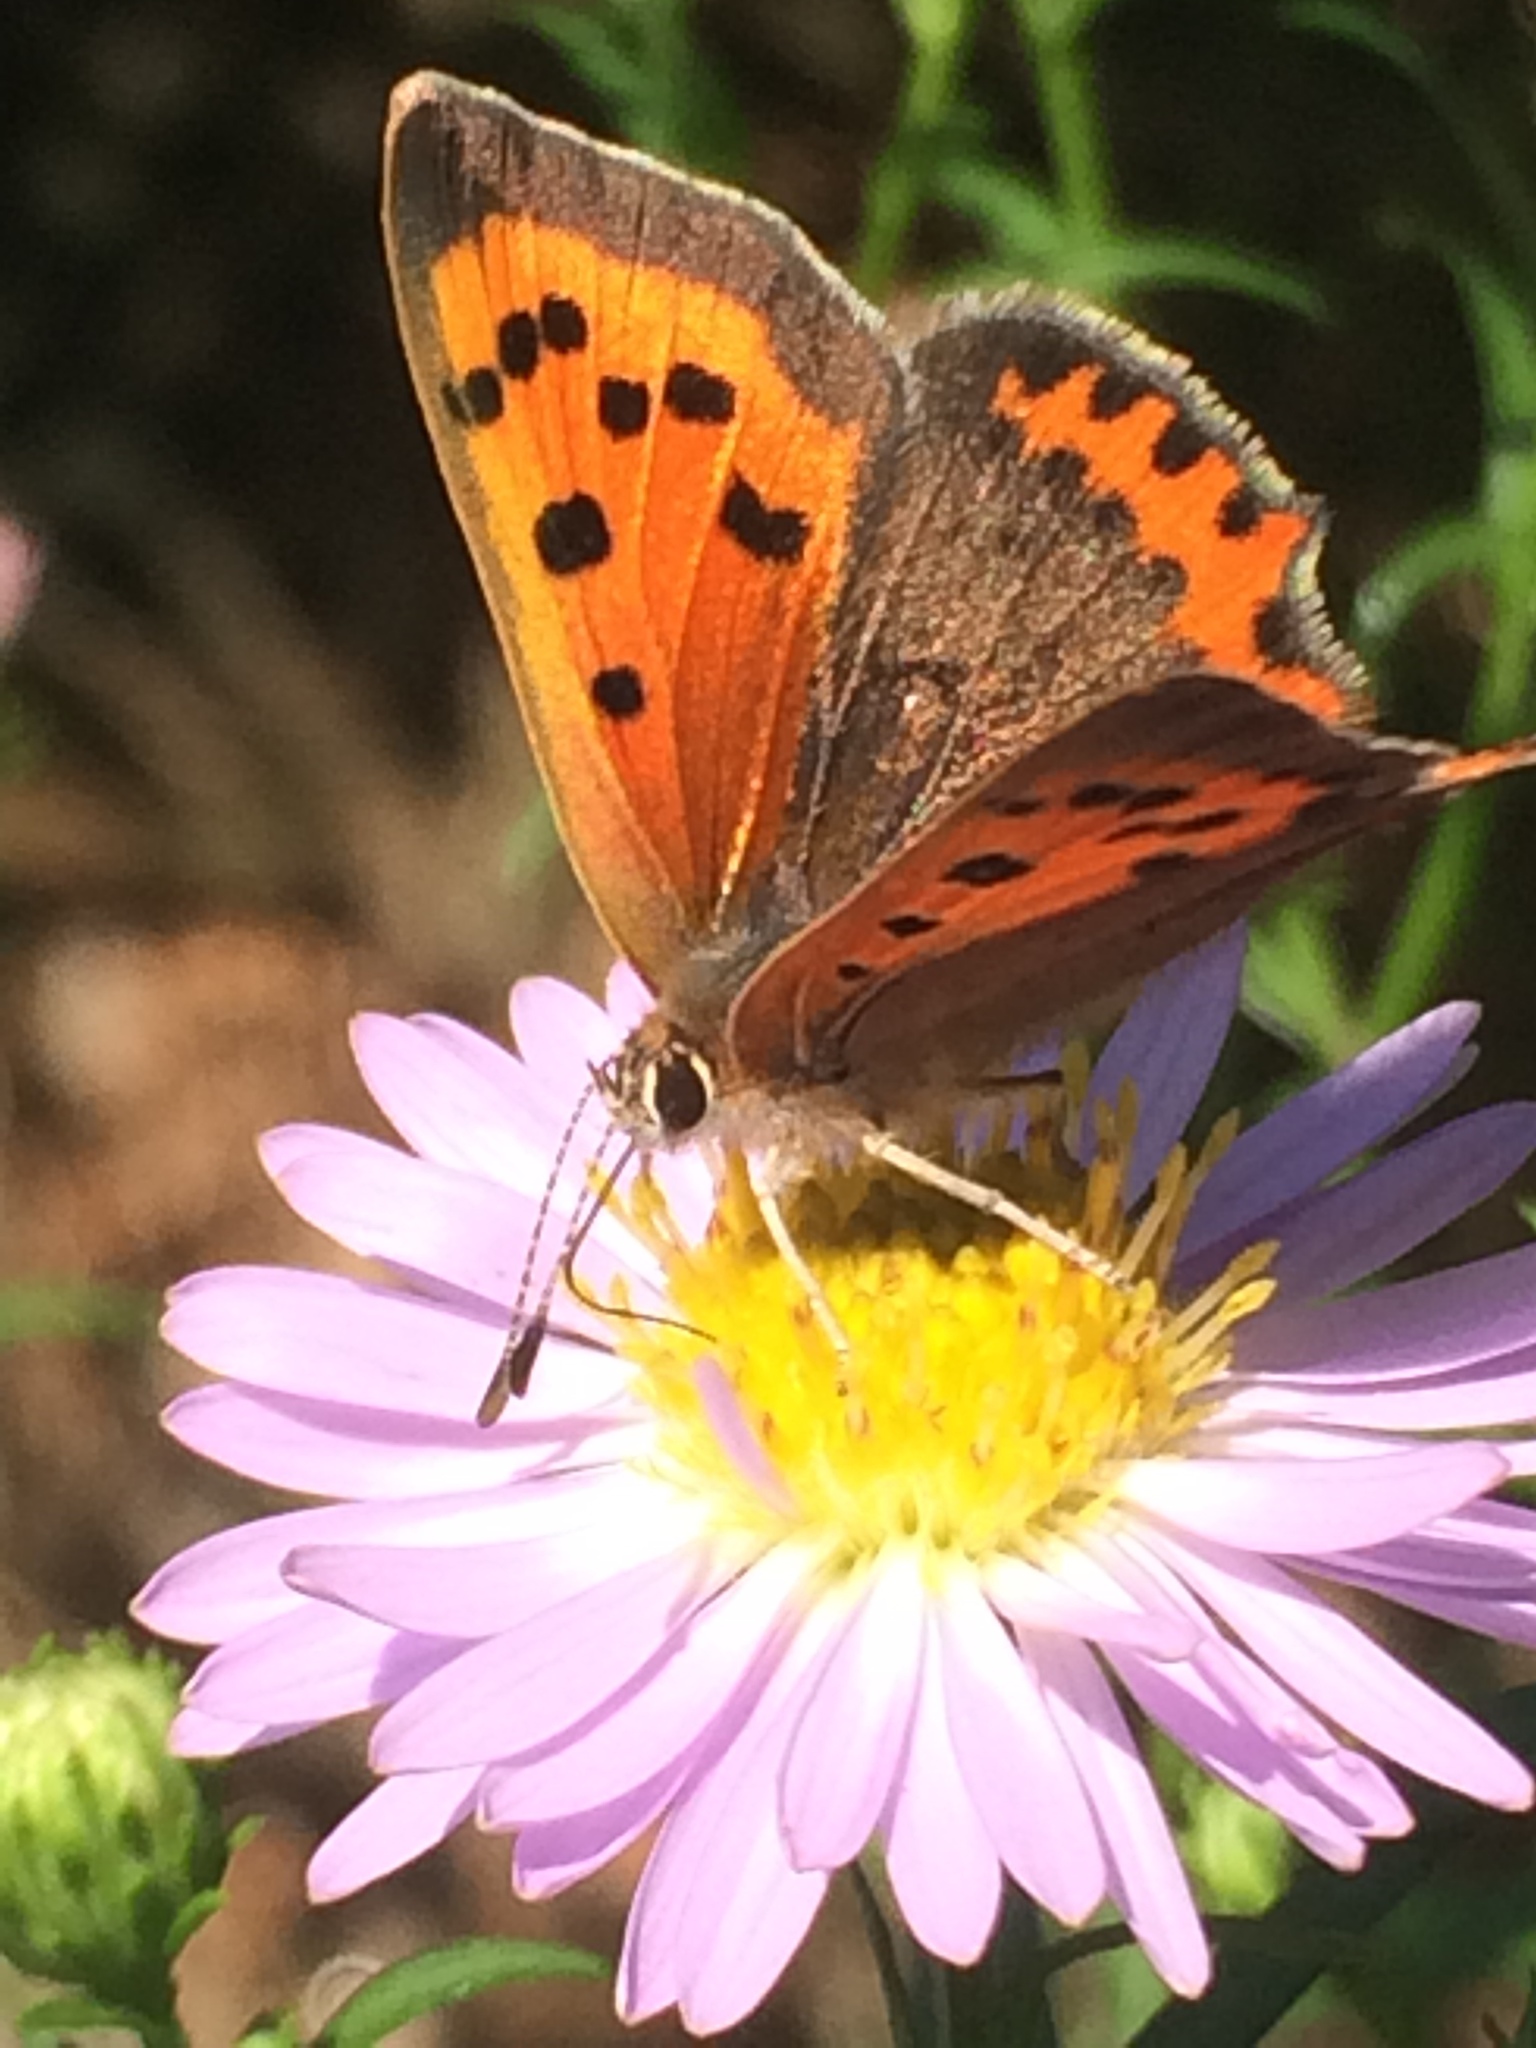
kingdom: Animalia
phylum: Arthropoda
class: Insecta
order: Lepidoptera
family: Lycaenidae
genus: Lycaena
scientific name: Lycaena phlaeas
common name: Small copper
